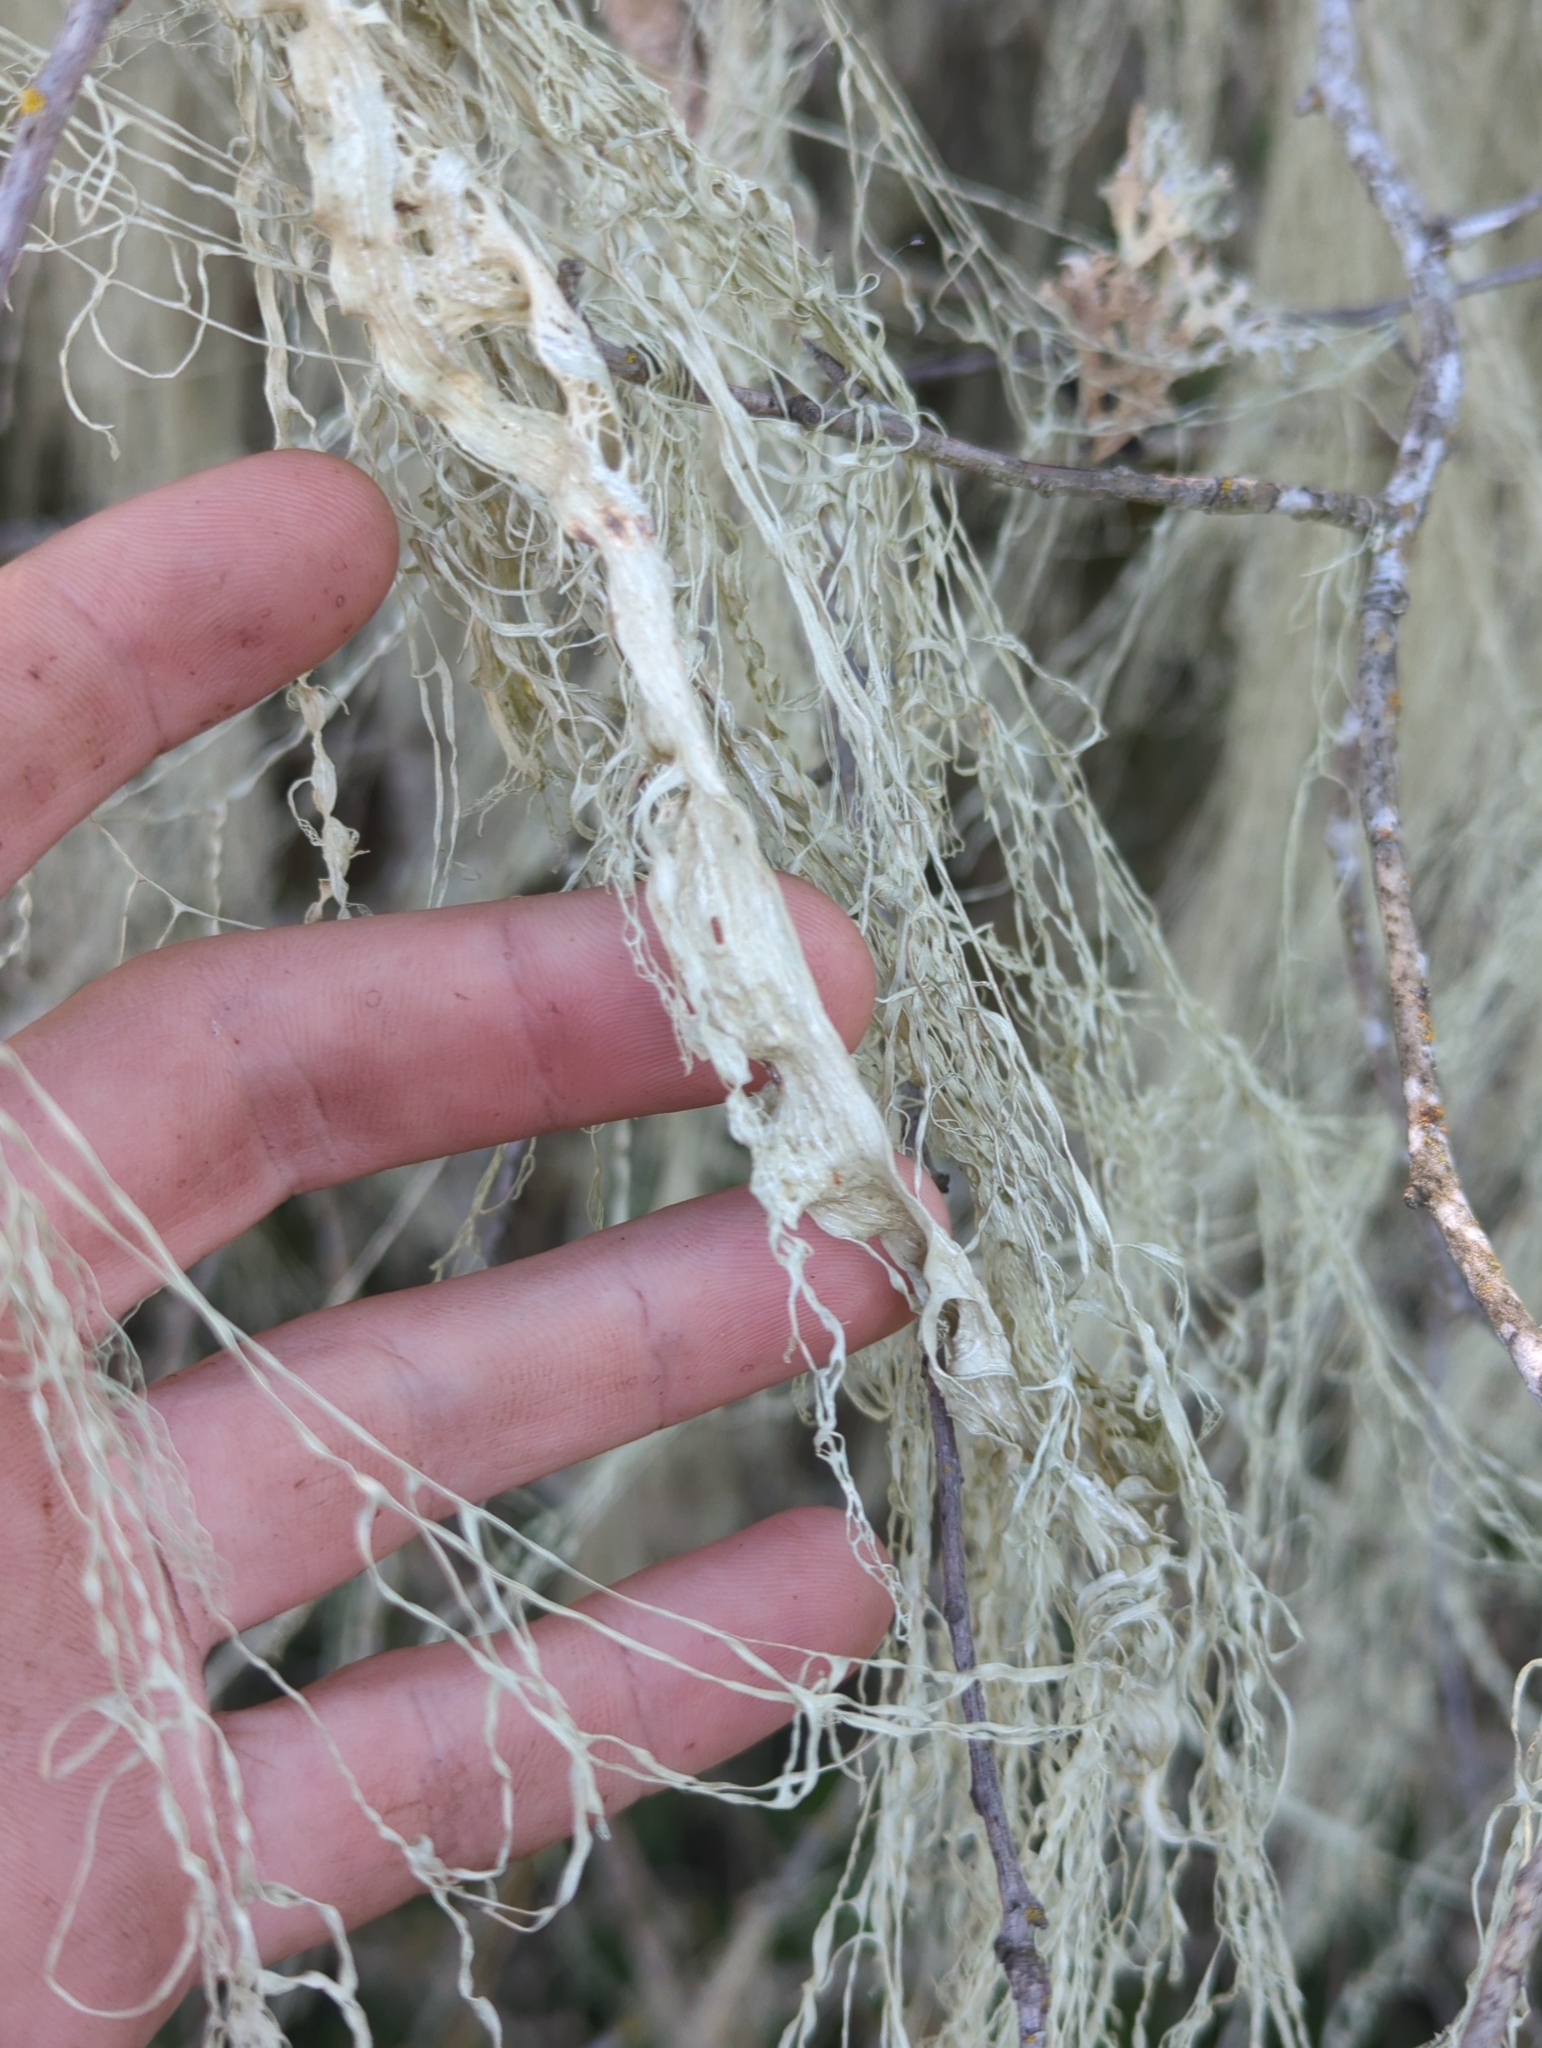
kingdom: Fungi
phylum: Ascomycota
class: Lecanoromycetes
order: Lecanorales
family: Ramalinaceae
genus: Ramalina
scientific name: Ramalina menziesii
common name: Lace lichen
